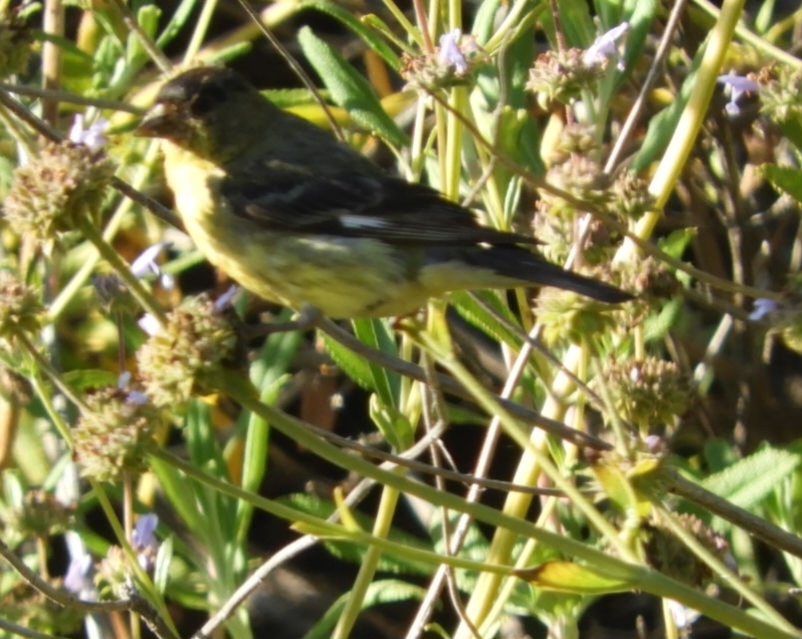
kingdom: Animalia
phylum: Chordata
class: Aves
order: Passeriformes
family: Fringillidae
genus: Spinus
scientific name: Spinus psaltria
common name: Lesser goldfinch
